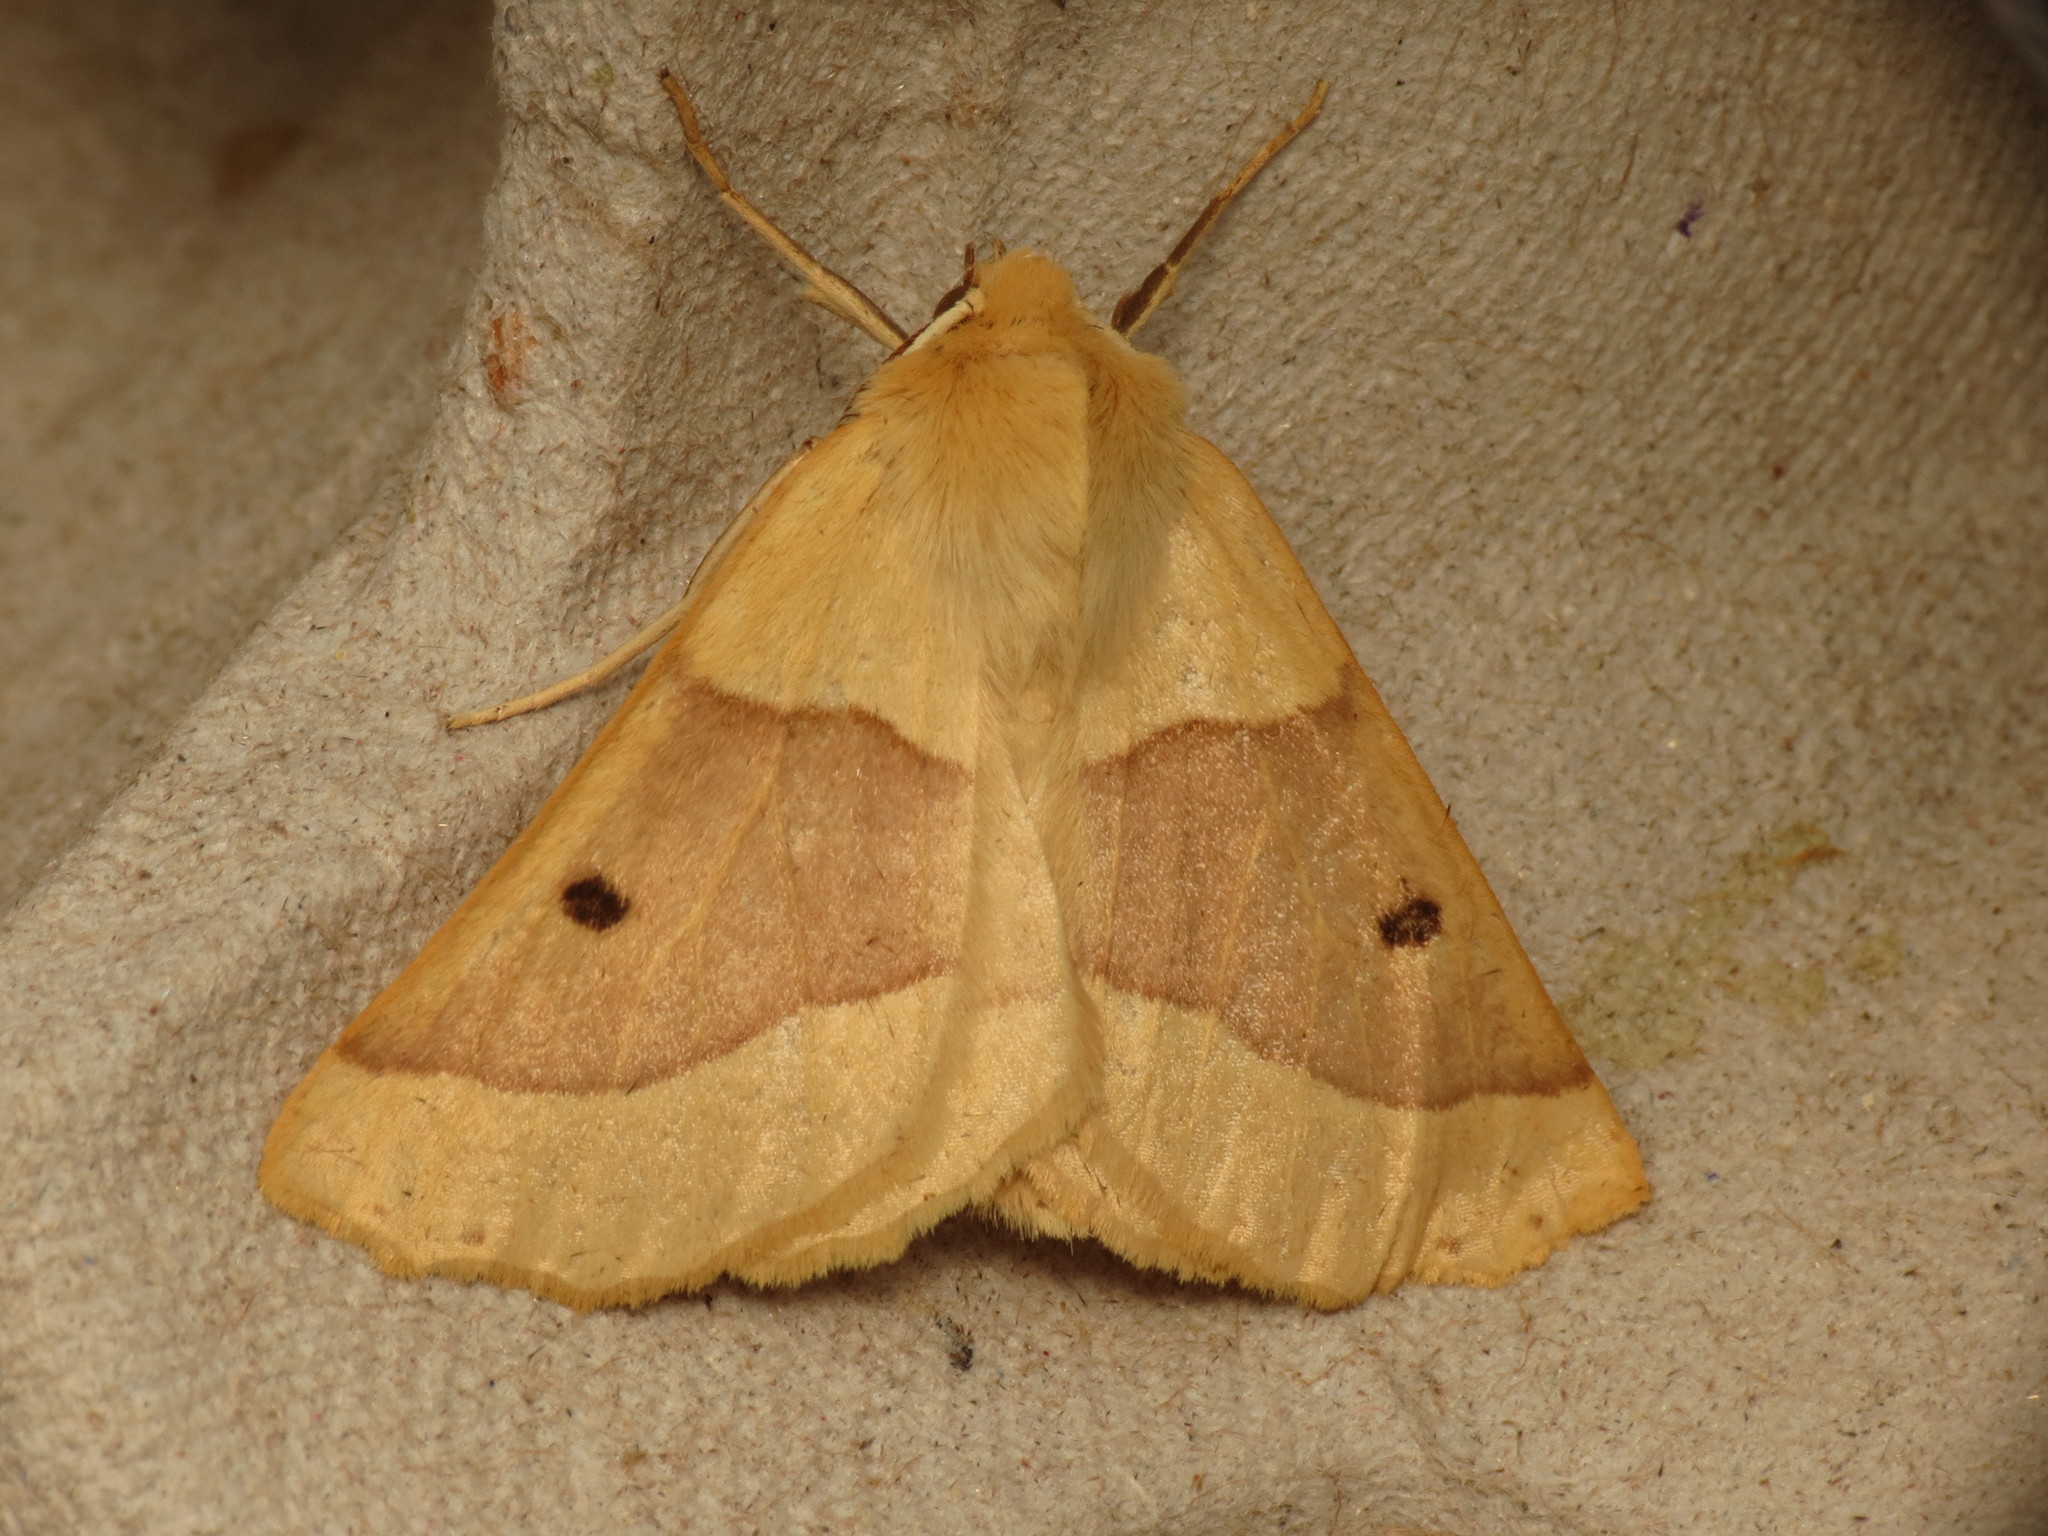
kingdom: Animalia
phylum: Arthropoda
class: Insecta
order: Lepidoptera
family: Geometridae
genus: Crocallis
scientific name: Crocallis elinguaria
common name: Scalloped oak
